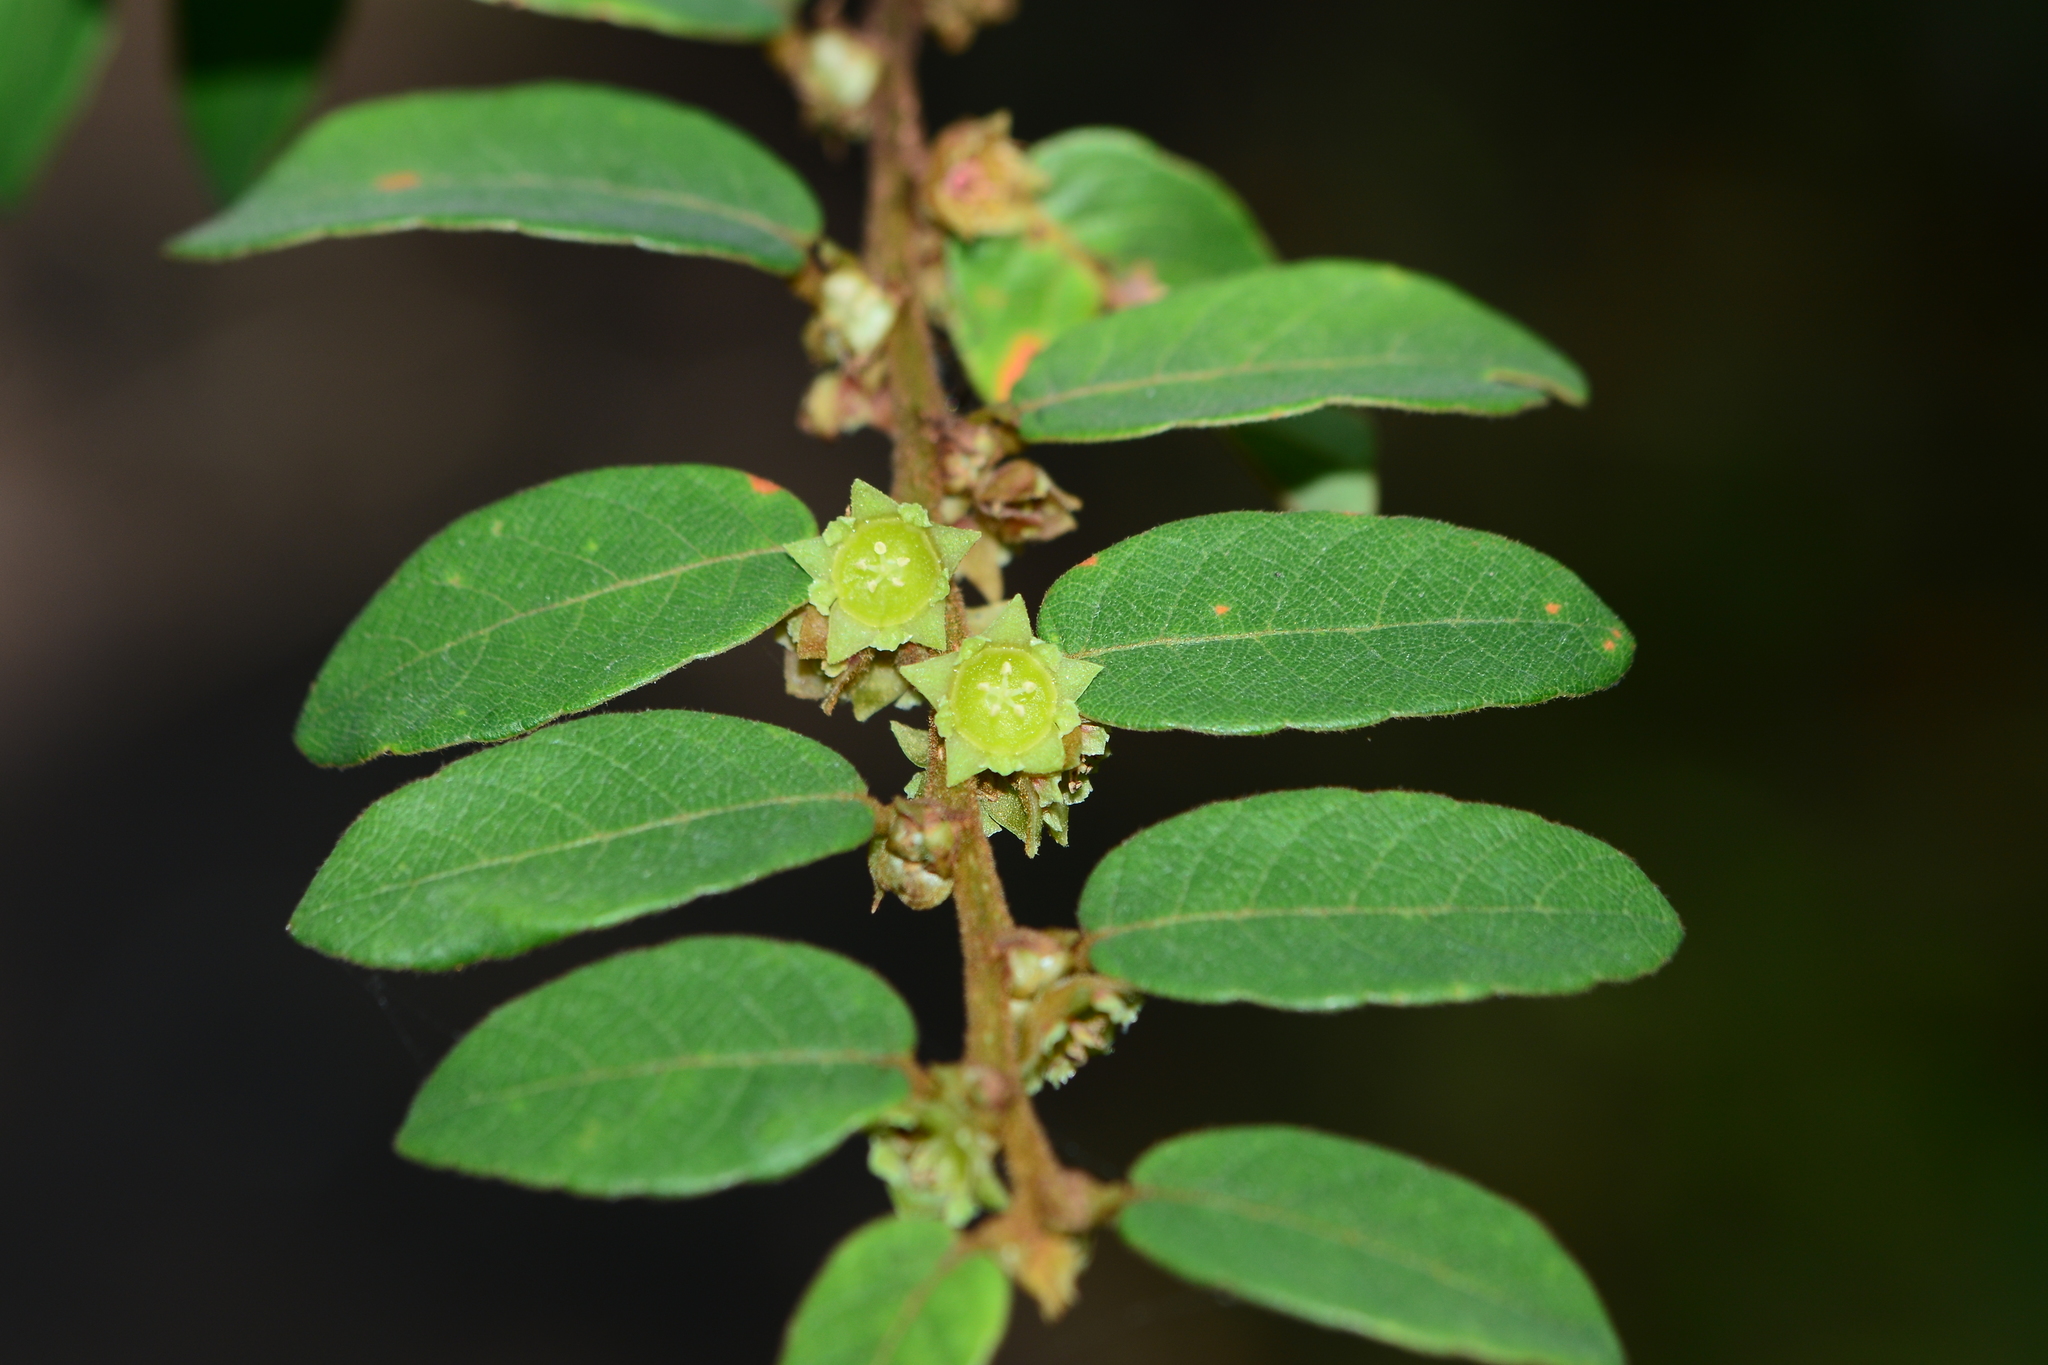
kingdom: Plantae
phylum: Tracheophyta
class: Magnoliopsida
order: Malpighiales
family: Phyllanthaceae
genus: Bridelia
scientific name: Bridelia stipularis
